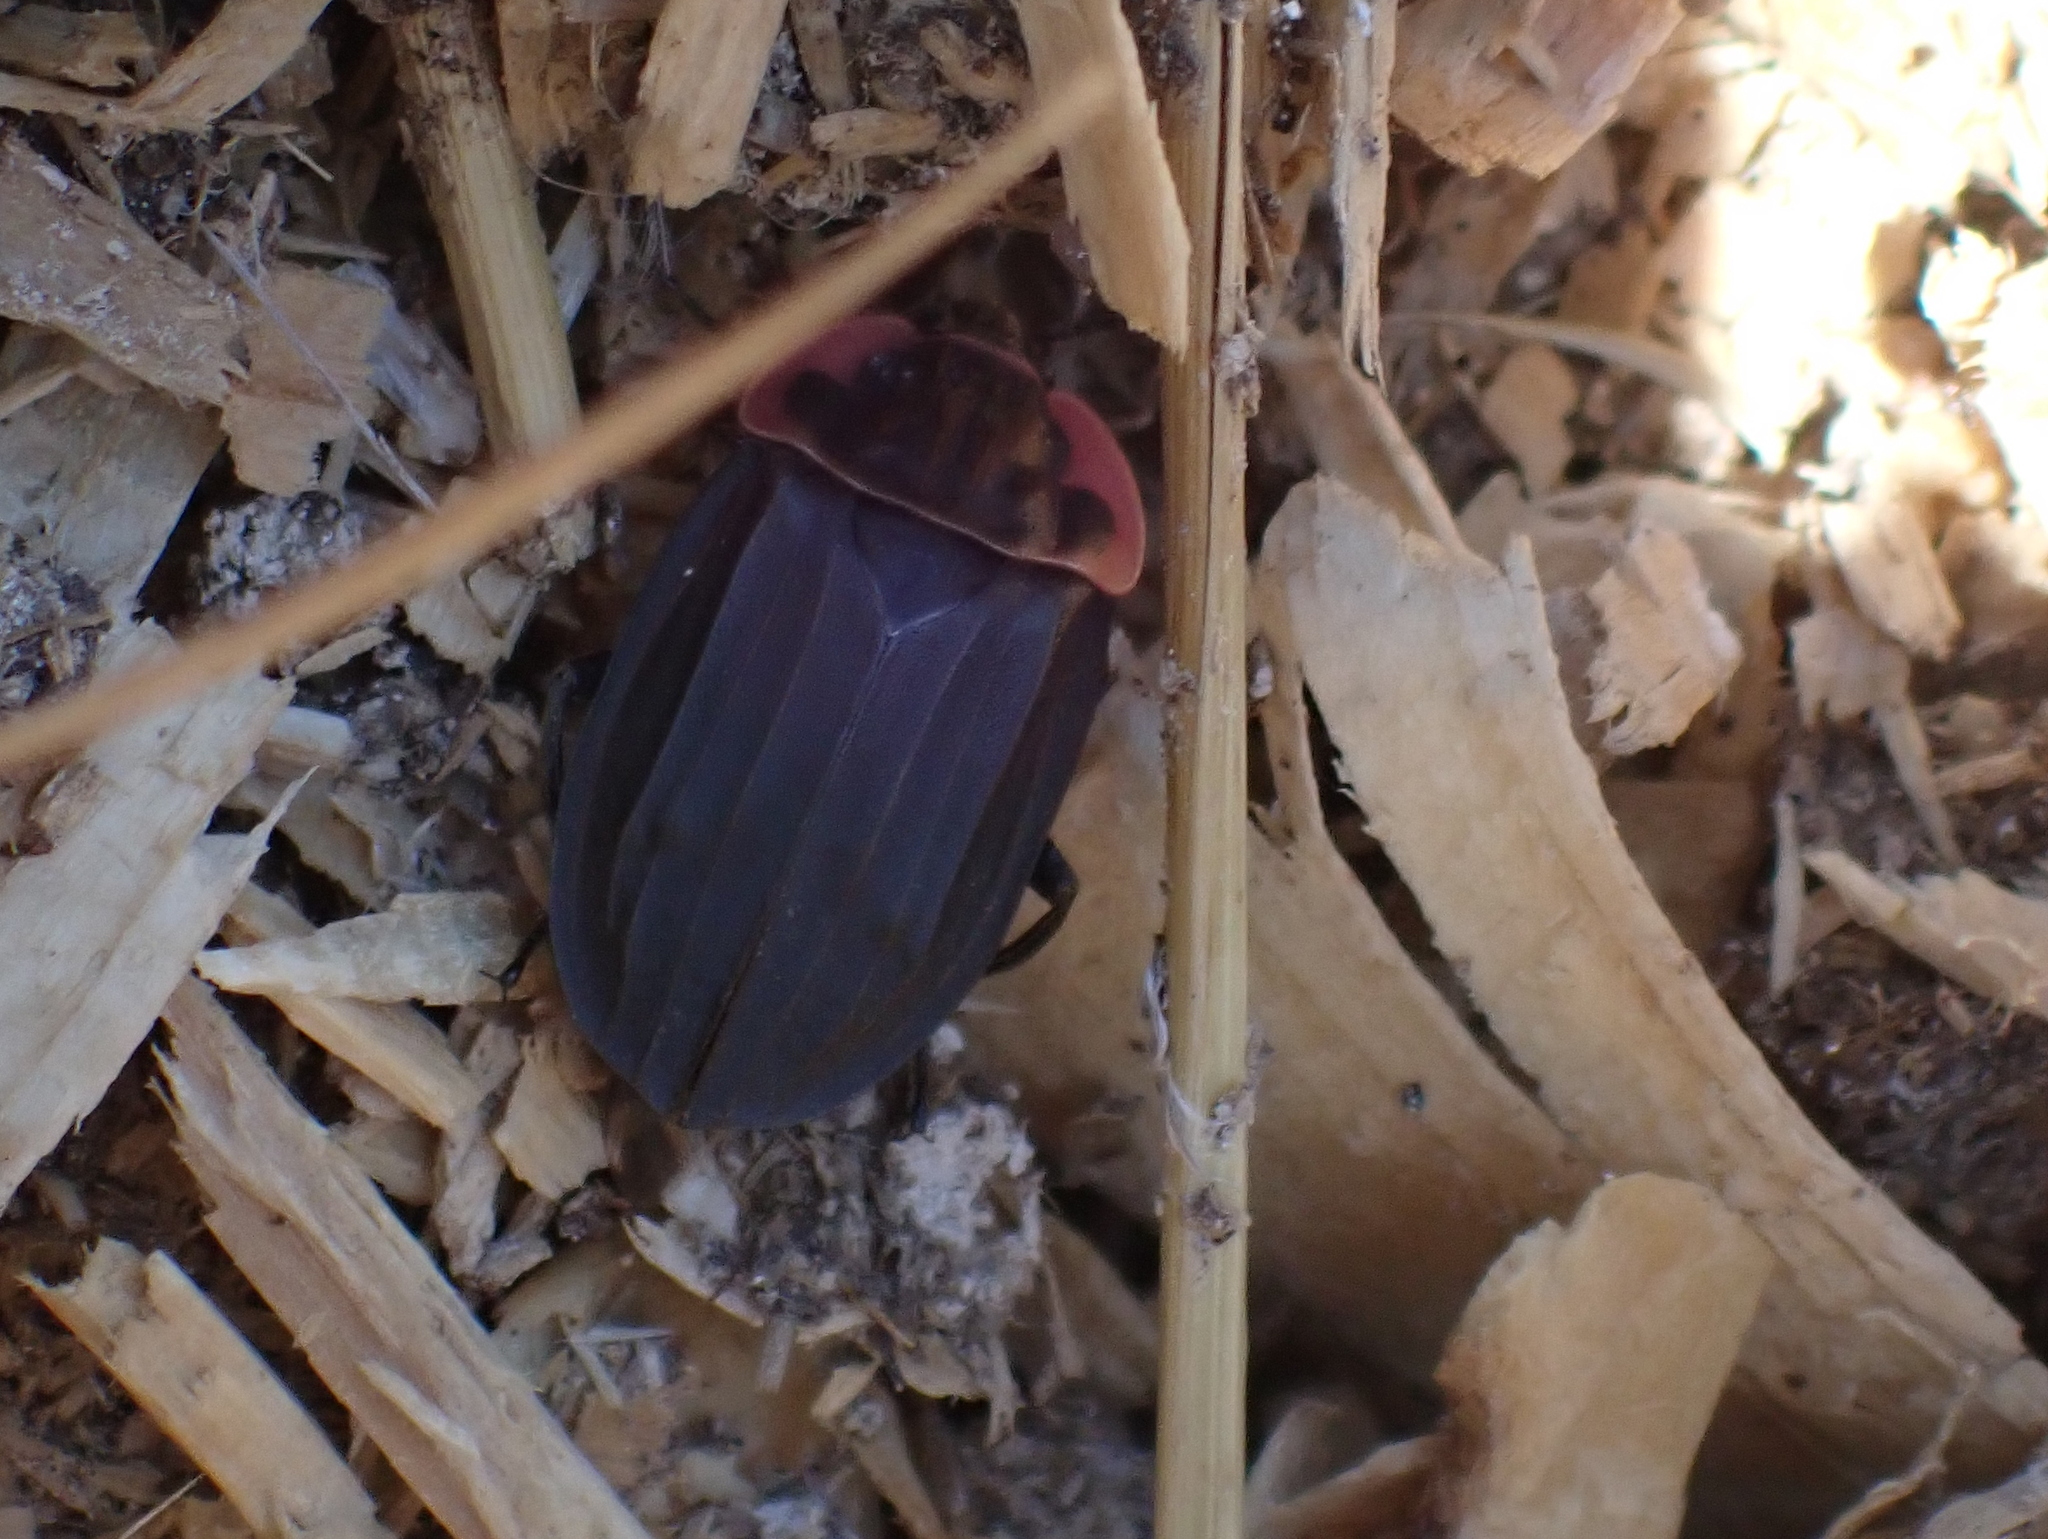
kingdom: Animalia
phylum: Arthropoda
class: Insecta
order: Coleoptera
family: Staphylinidae
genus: Oiceoptoma
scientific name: Oiceoptoma noveboracense
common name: Margined carrion beetle
